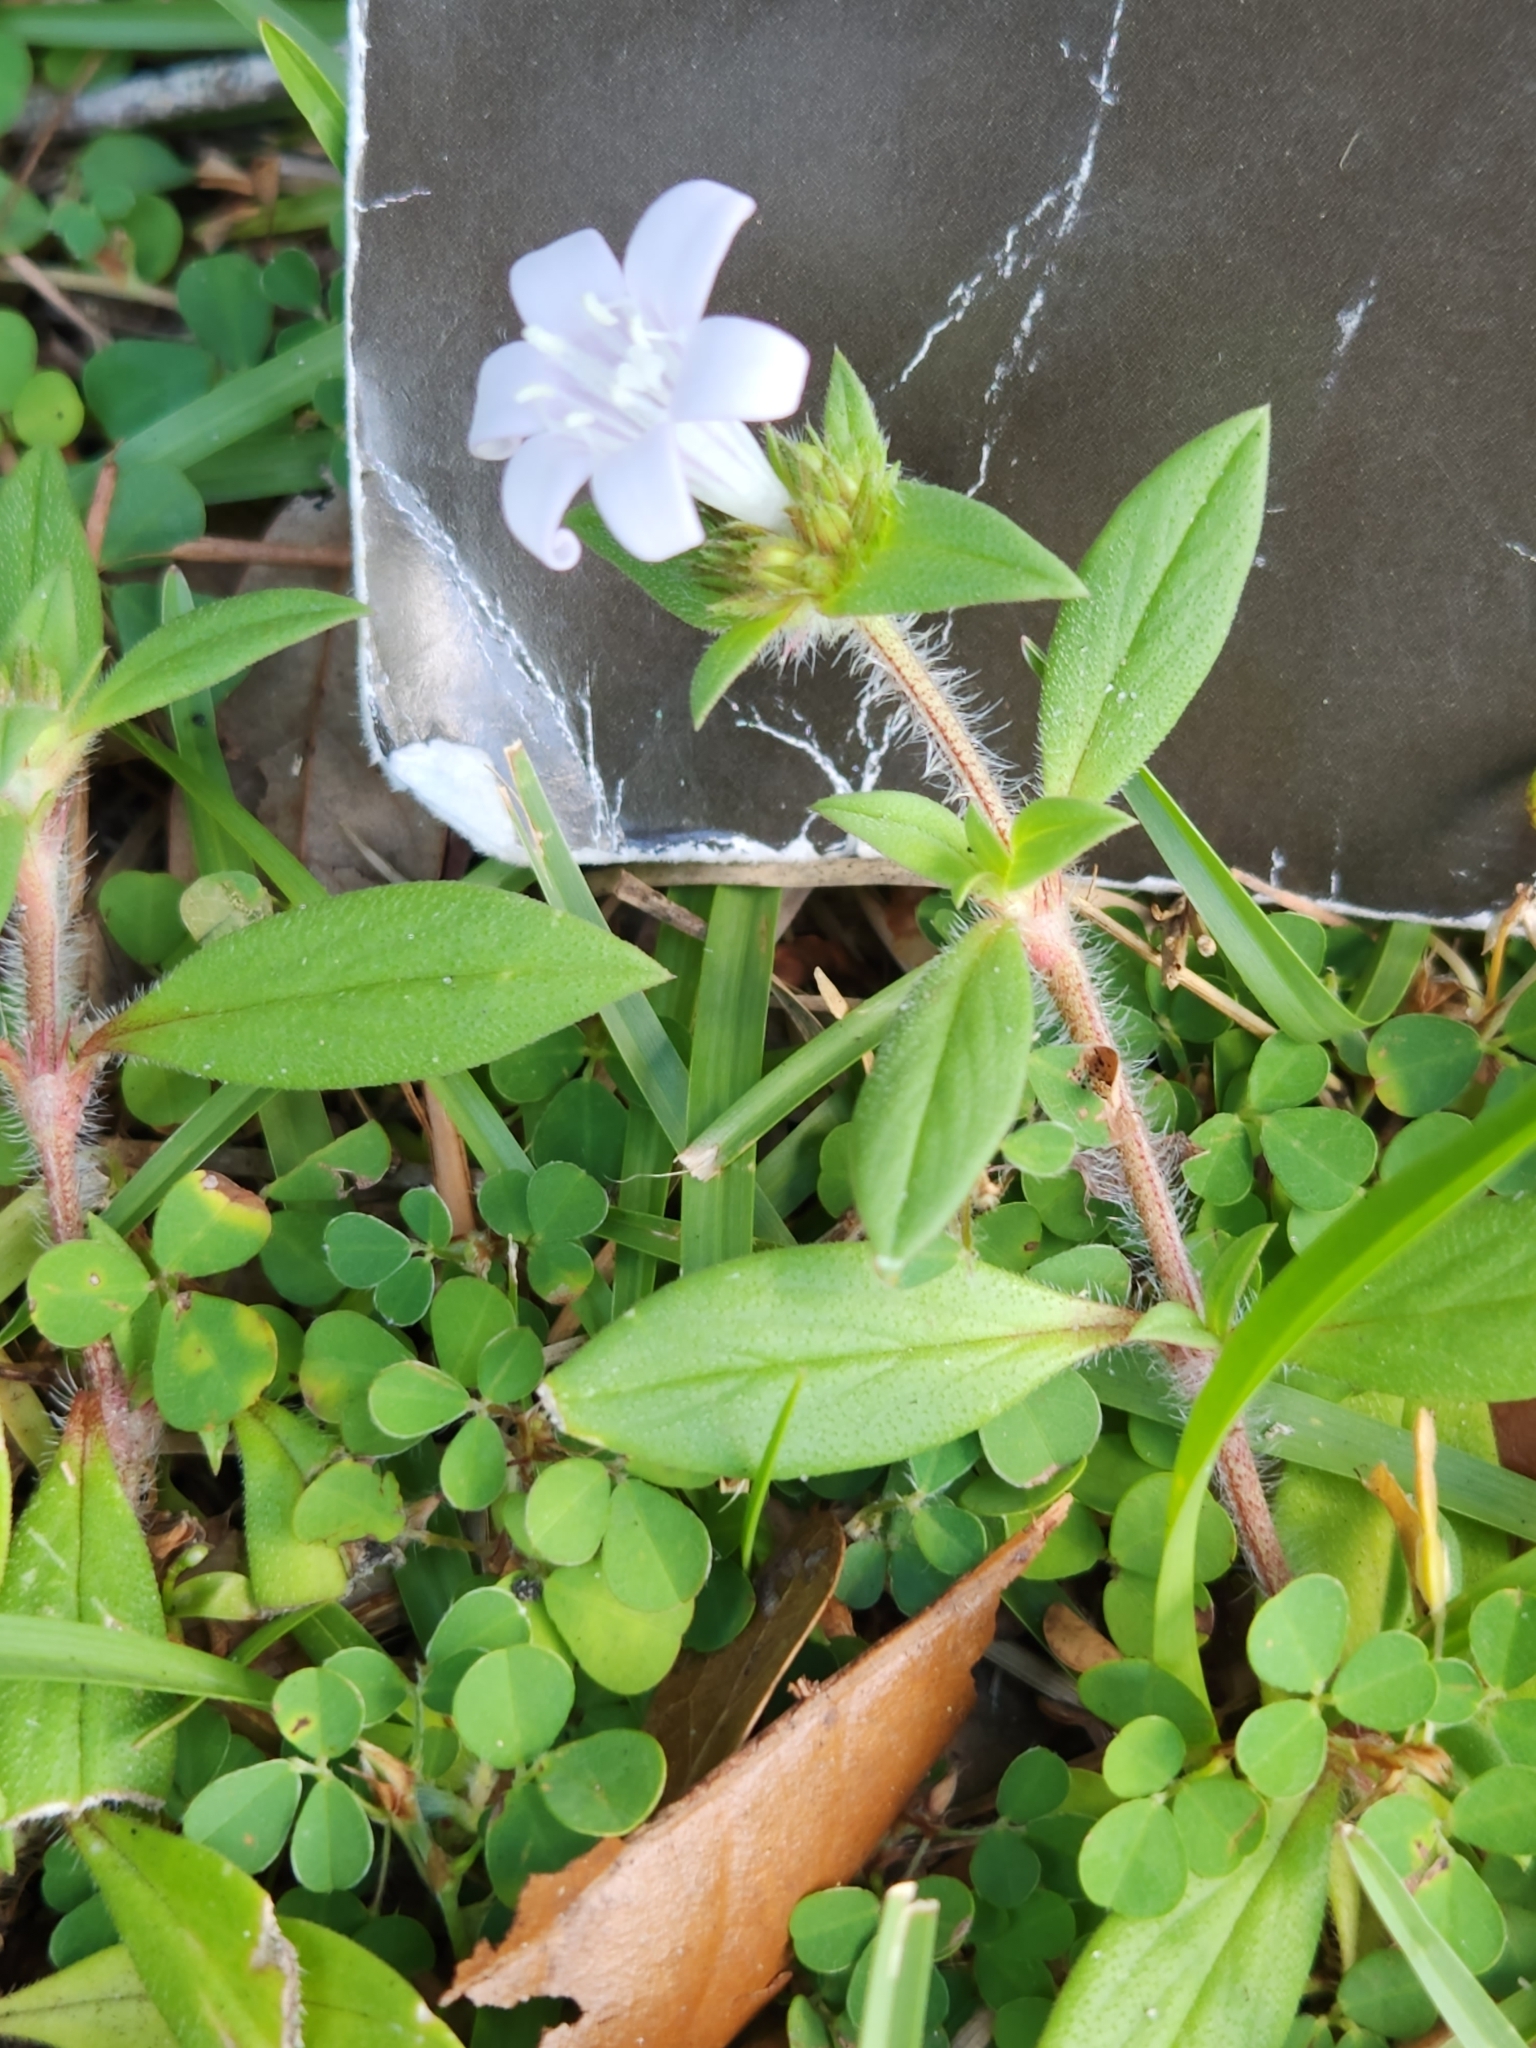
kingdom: Plantae
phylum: Tracheophyta
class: Magnoliopsida
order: Gentianales
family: Rubiaceae
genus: Richardia
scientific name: Richardia grandiflora
